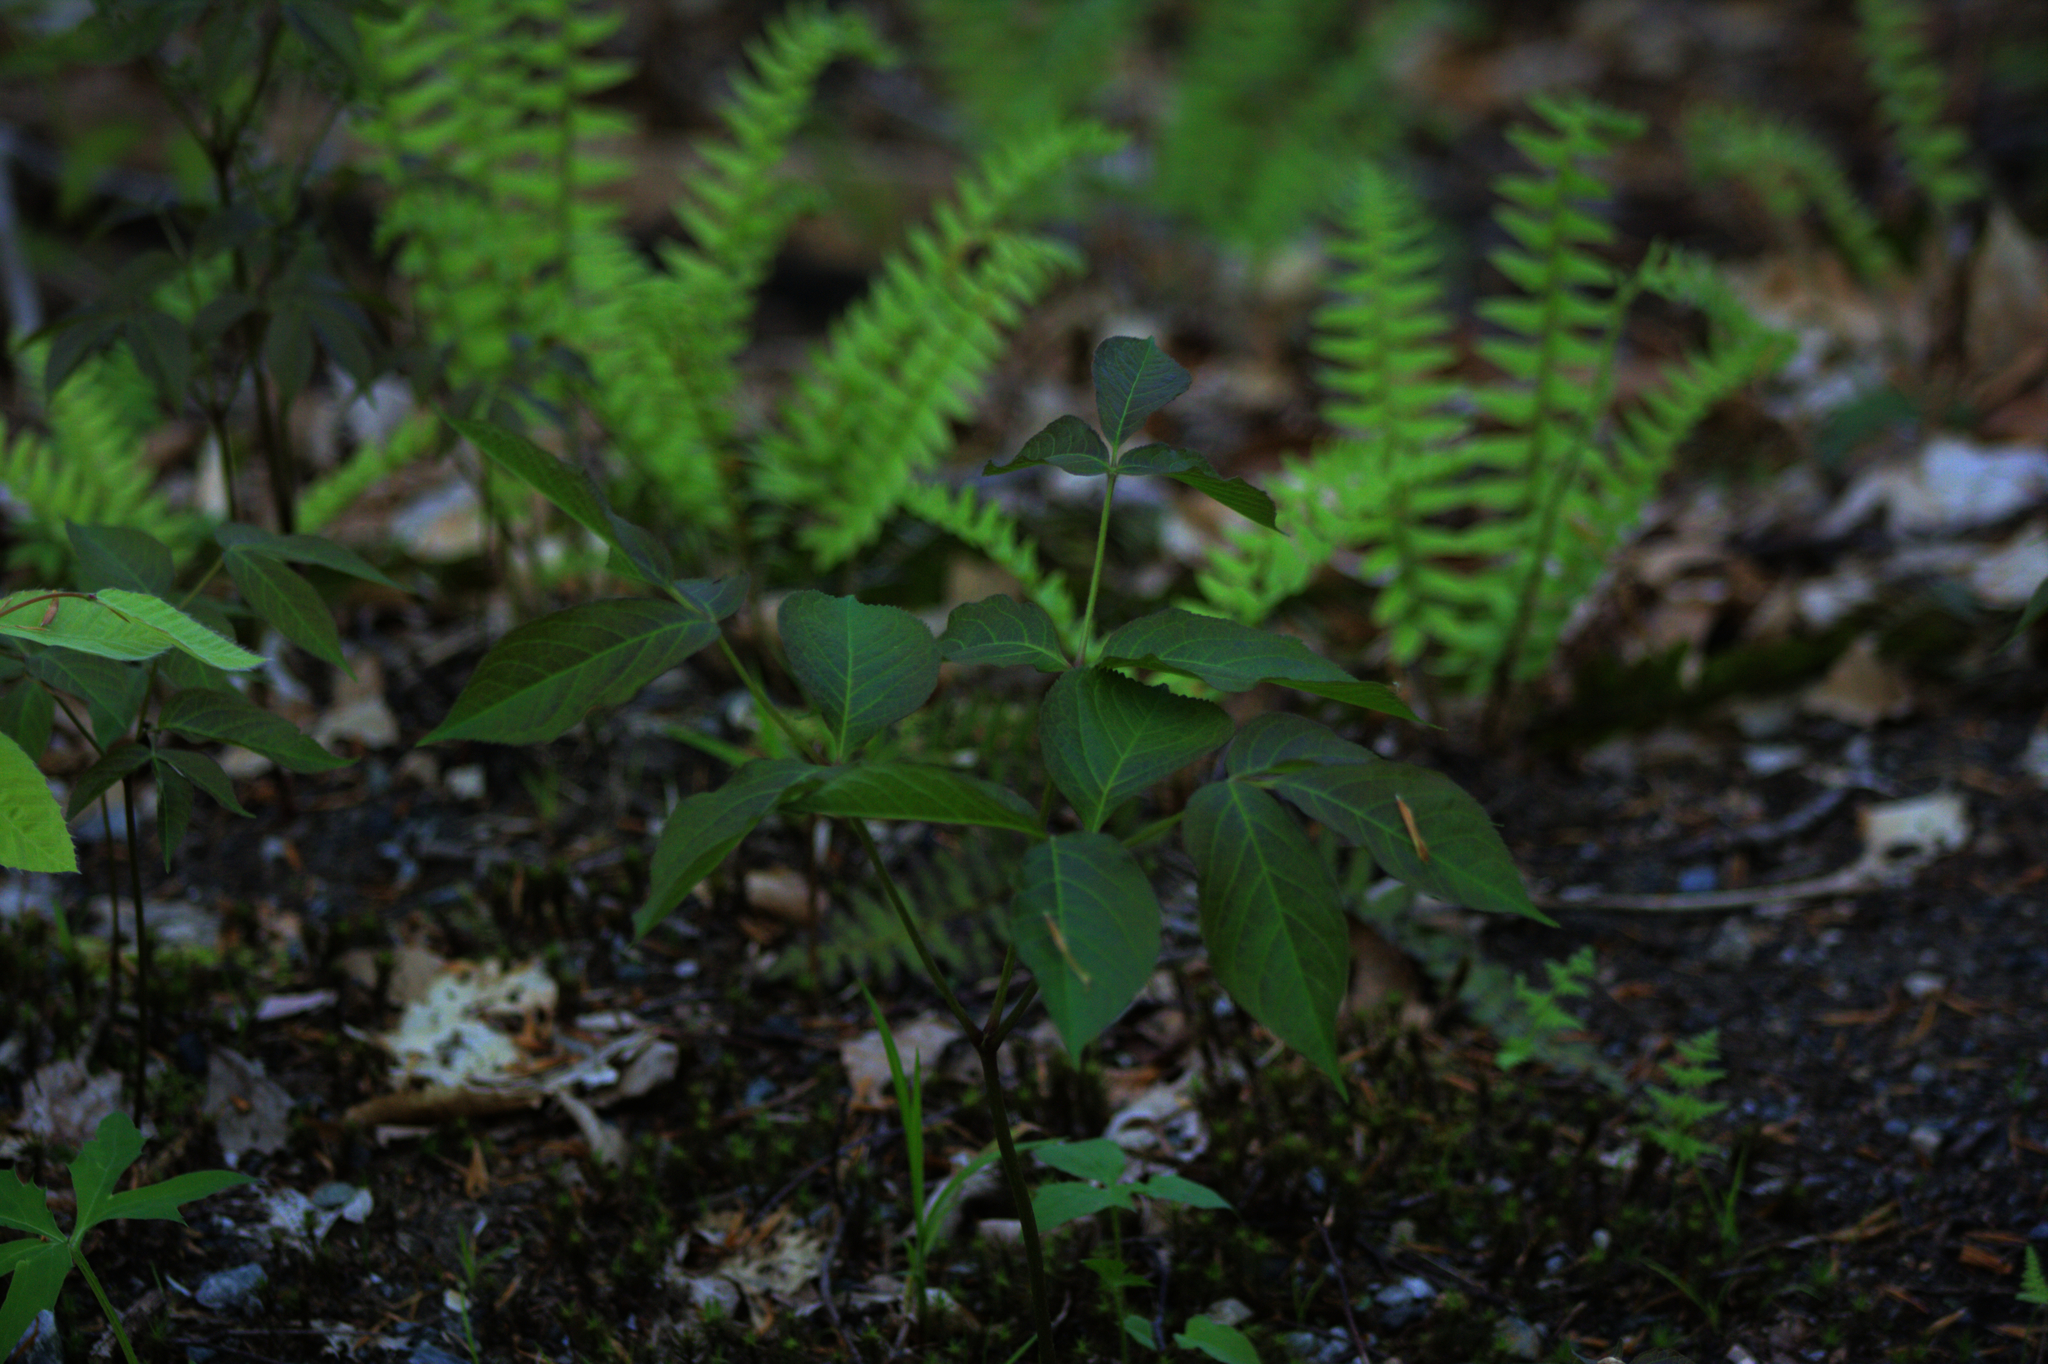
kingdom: Plantae
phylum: Tracheophyta
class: Magnoliopsida
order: Apiales
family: Araliaceae
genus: Aralia
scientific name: Aralia nudicaulis
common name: Wild sarsaparilla
